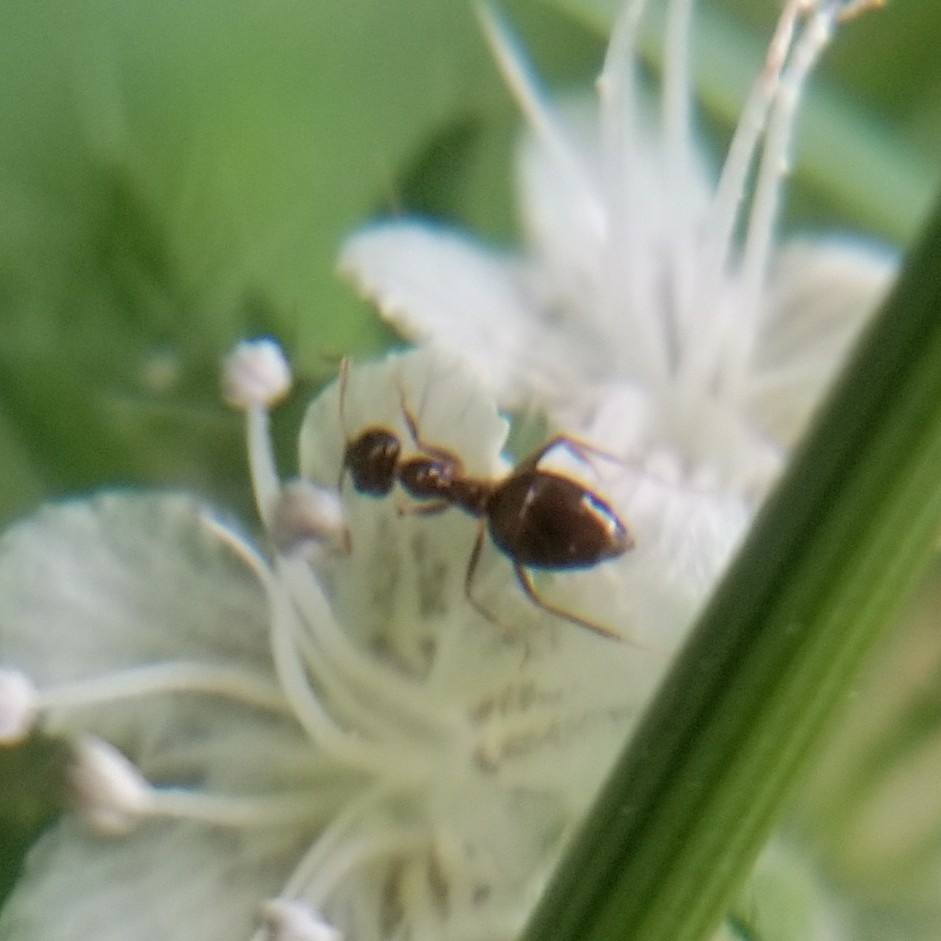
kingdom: Animalia
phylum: Arthropoda
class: Insecta
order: Hymenoptera
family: Formicidae
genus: Prenolepis
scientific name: Prenolepis imparis
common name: Small honey ant
